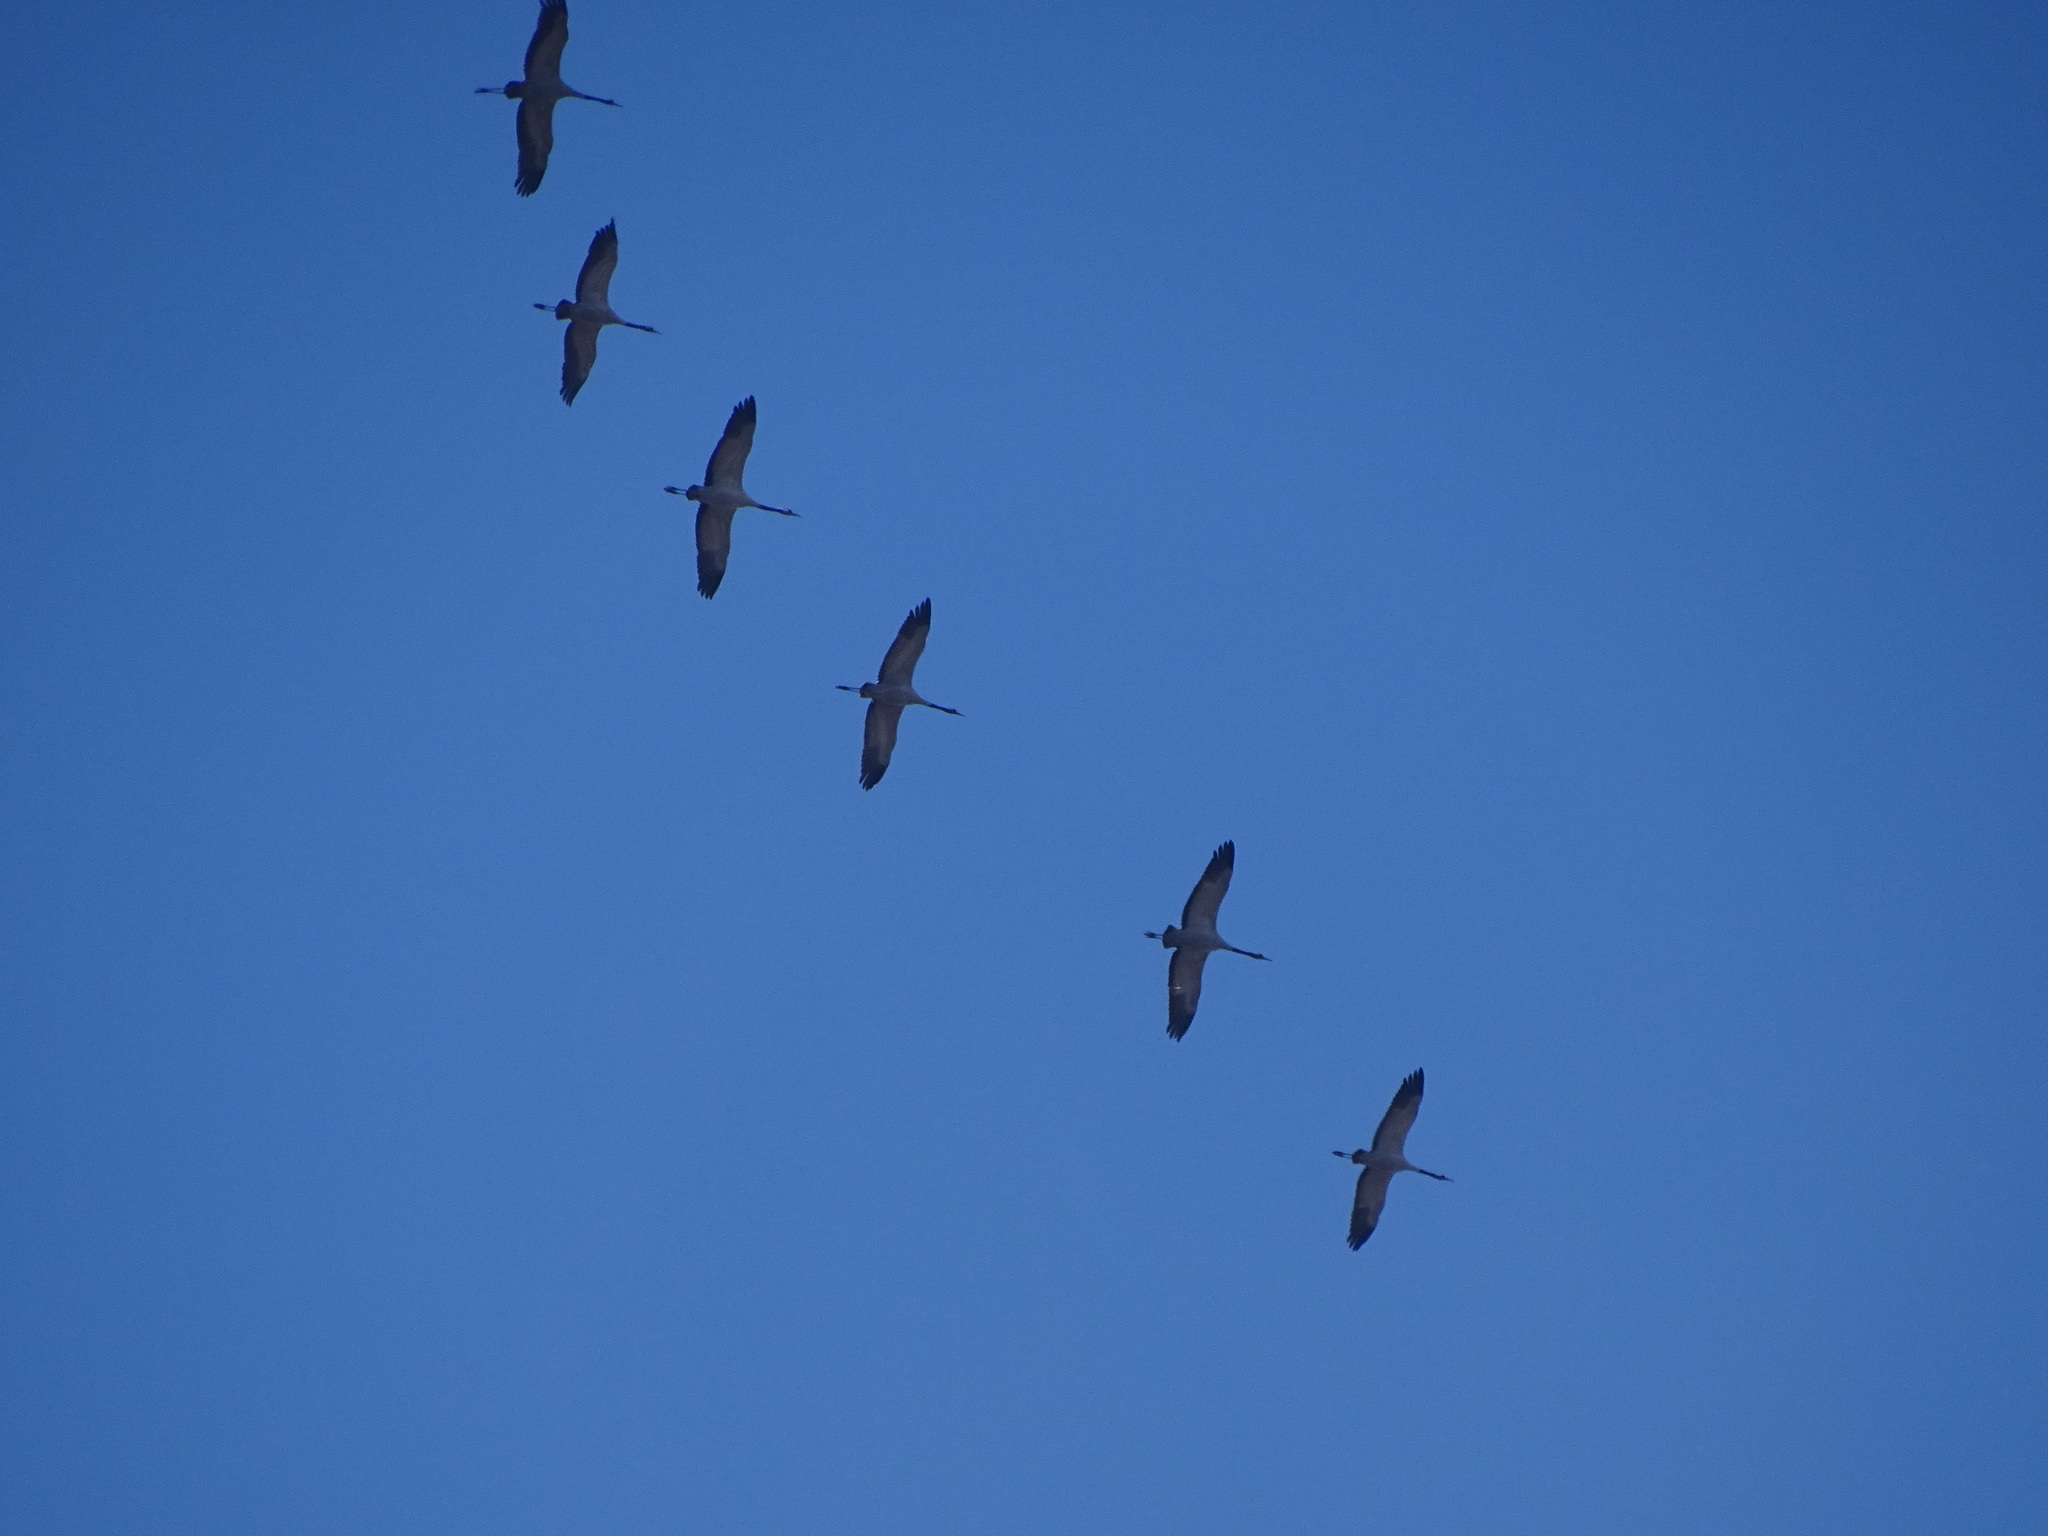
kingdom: Animalia
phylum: Chordata
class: Aves
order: Gruiformes
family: Gruidae
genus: Grus
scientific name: Grus grus
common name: Common crane
